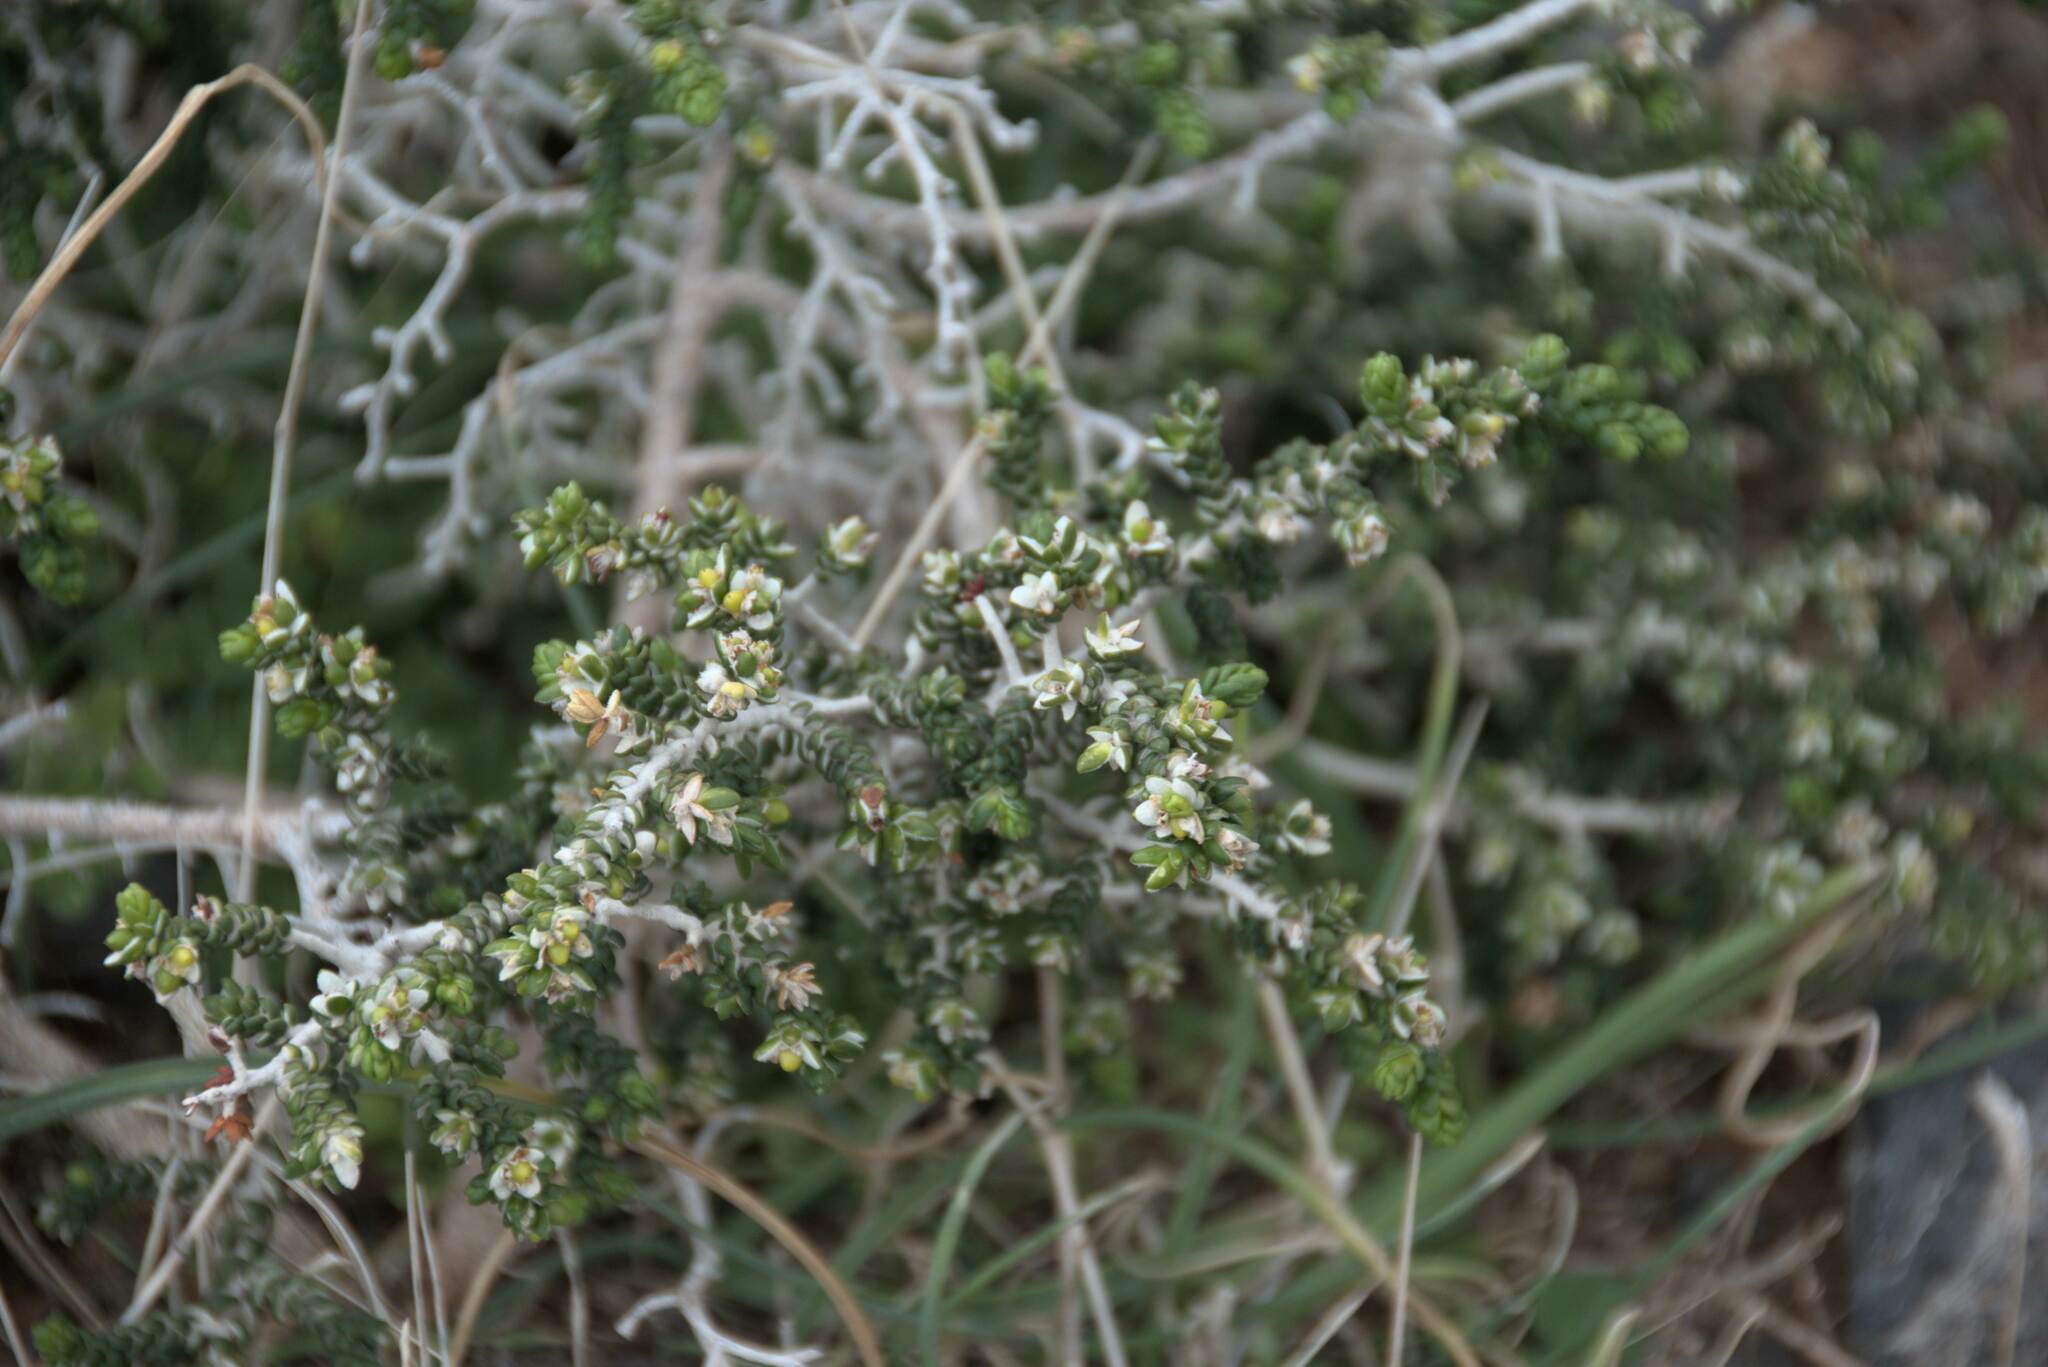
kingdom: Plantae
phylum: Tracheophyta
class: Magnoliopsida
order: Malvales
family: Thymelaeaceae
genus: Thymelaea
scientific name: Thymelaea hirsuta
